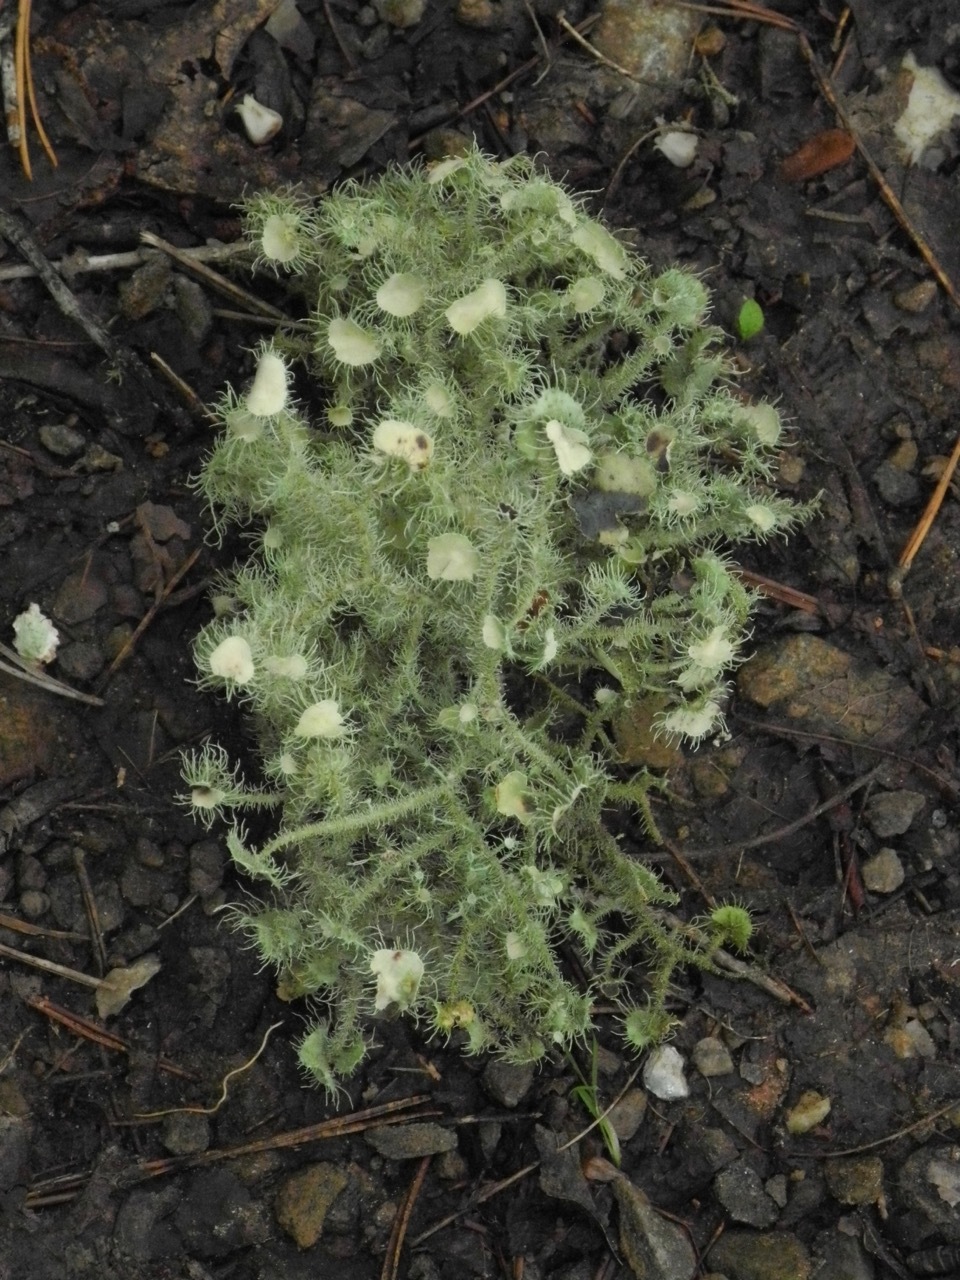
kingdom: Fungi
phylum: Ascomycota
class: Lecanoromycetes
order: Lecanorales
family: Parmeliaceae
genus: Usnea
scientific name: Usnea strigosa
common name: Bushy beard lichen
